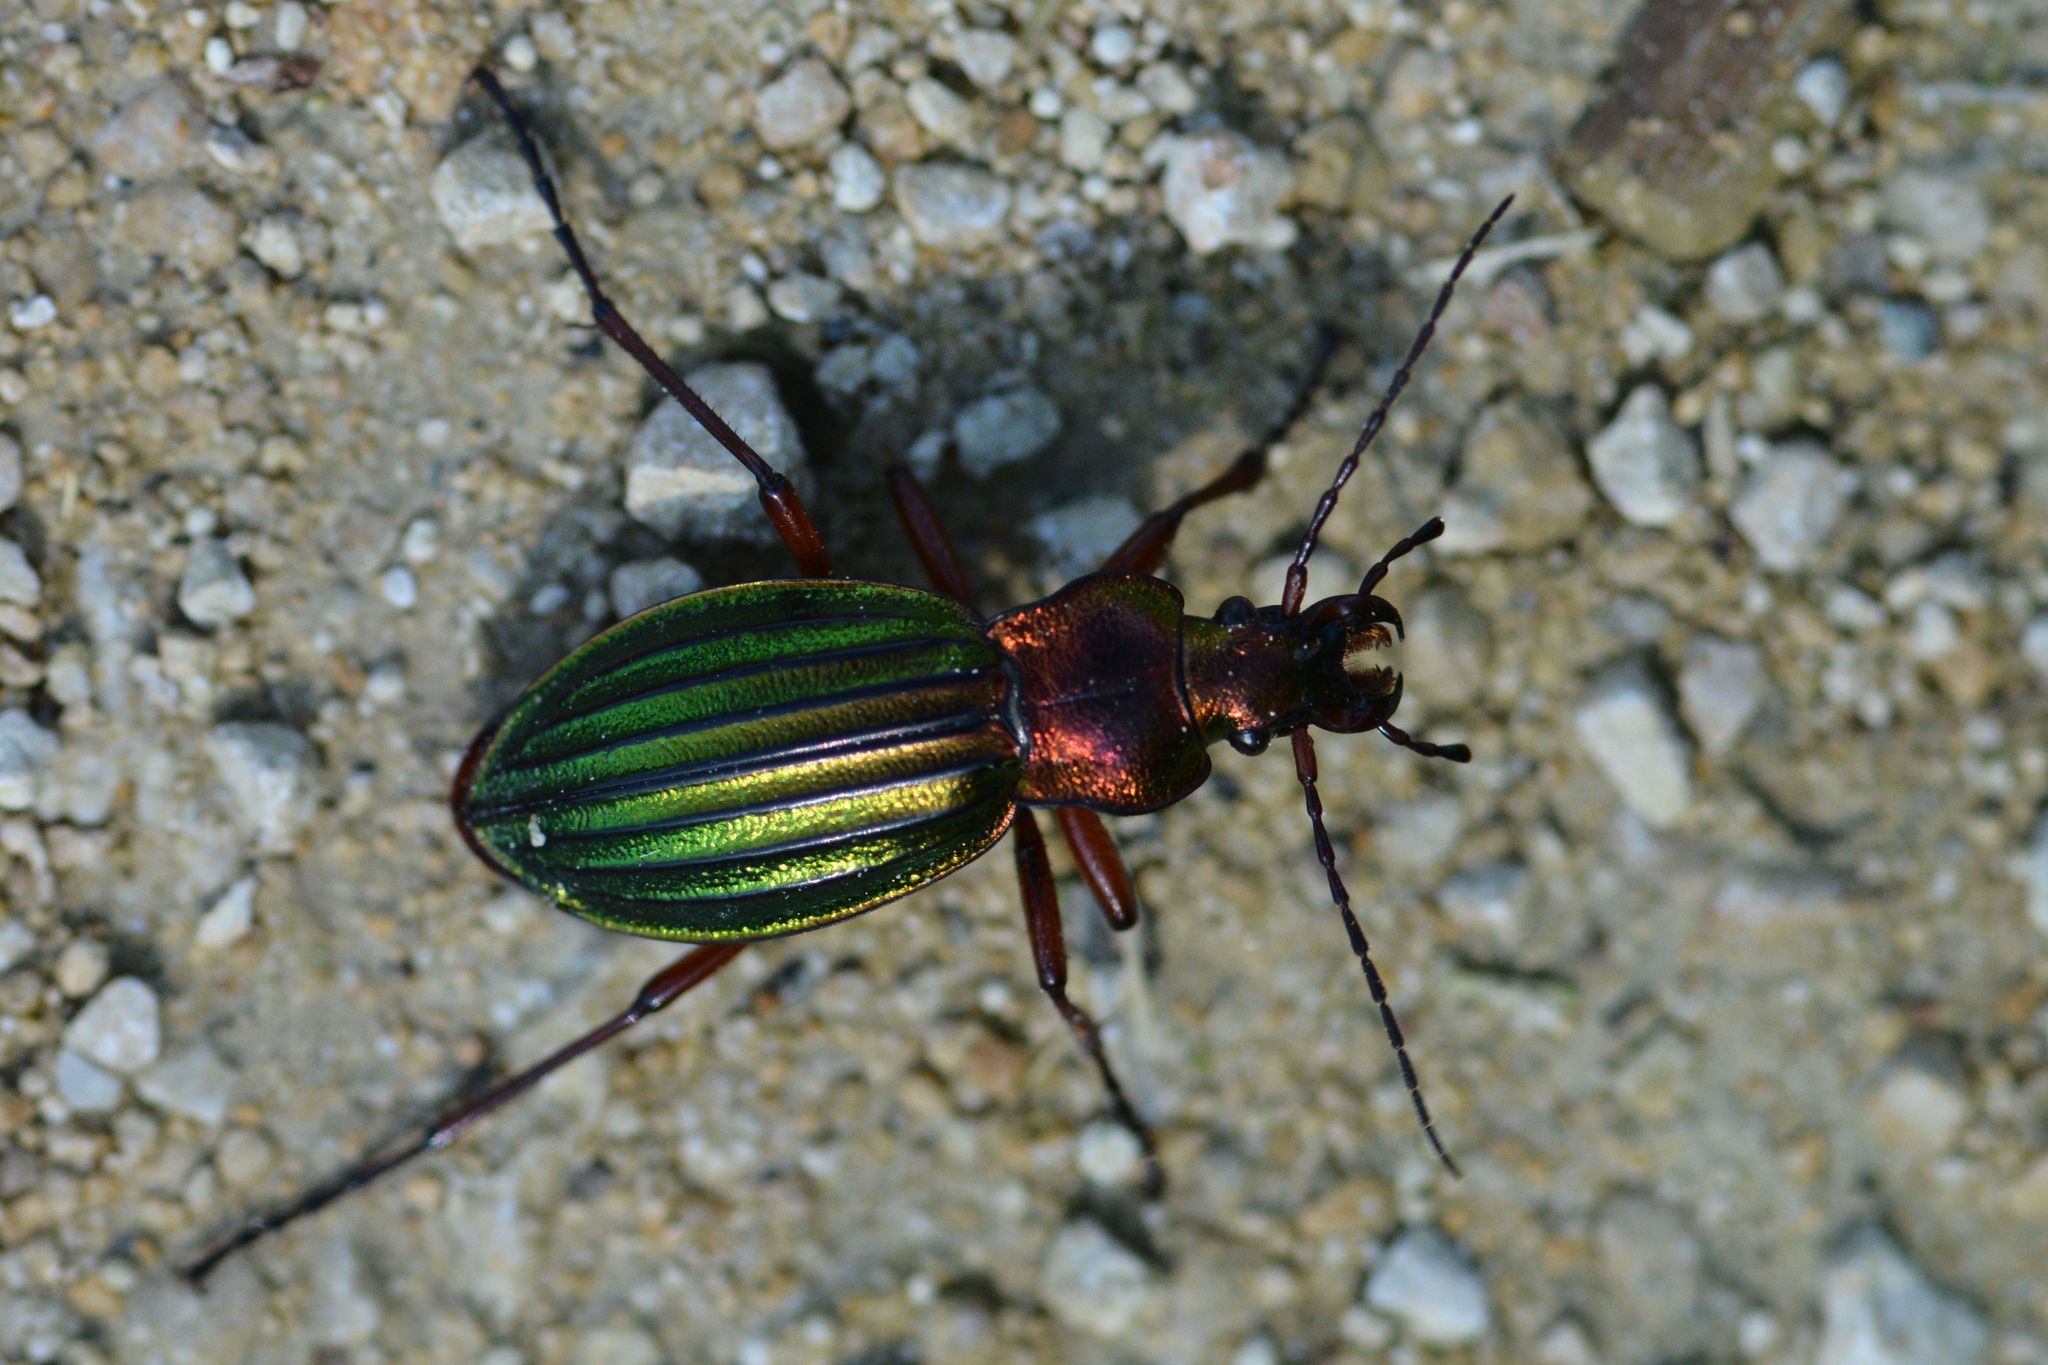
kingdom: Animalia
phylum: Arthropoda
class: Insecta
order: Coleoptera
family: Carabidae
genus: Carabus
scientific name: Carabus auronitens
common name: Carabus auronitens
